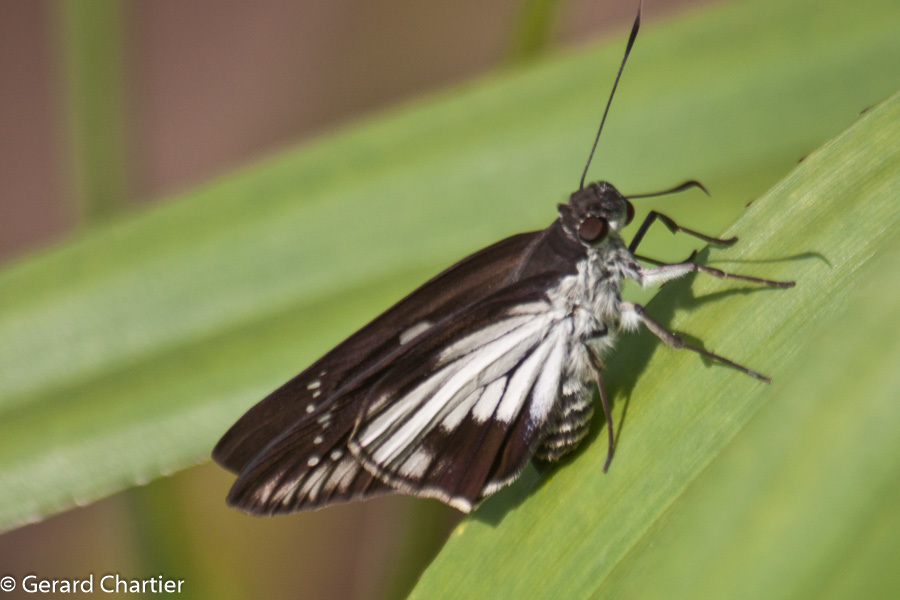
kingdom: Animalia
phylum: Arthropoda
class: Insecta
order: Lepidoptera
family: Hesperiidae
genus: Unkana
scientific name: Unkana ambasa
